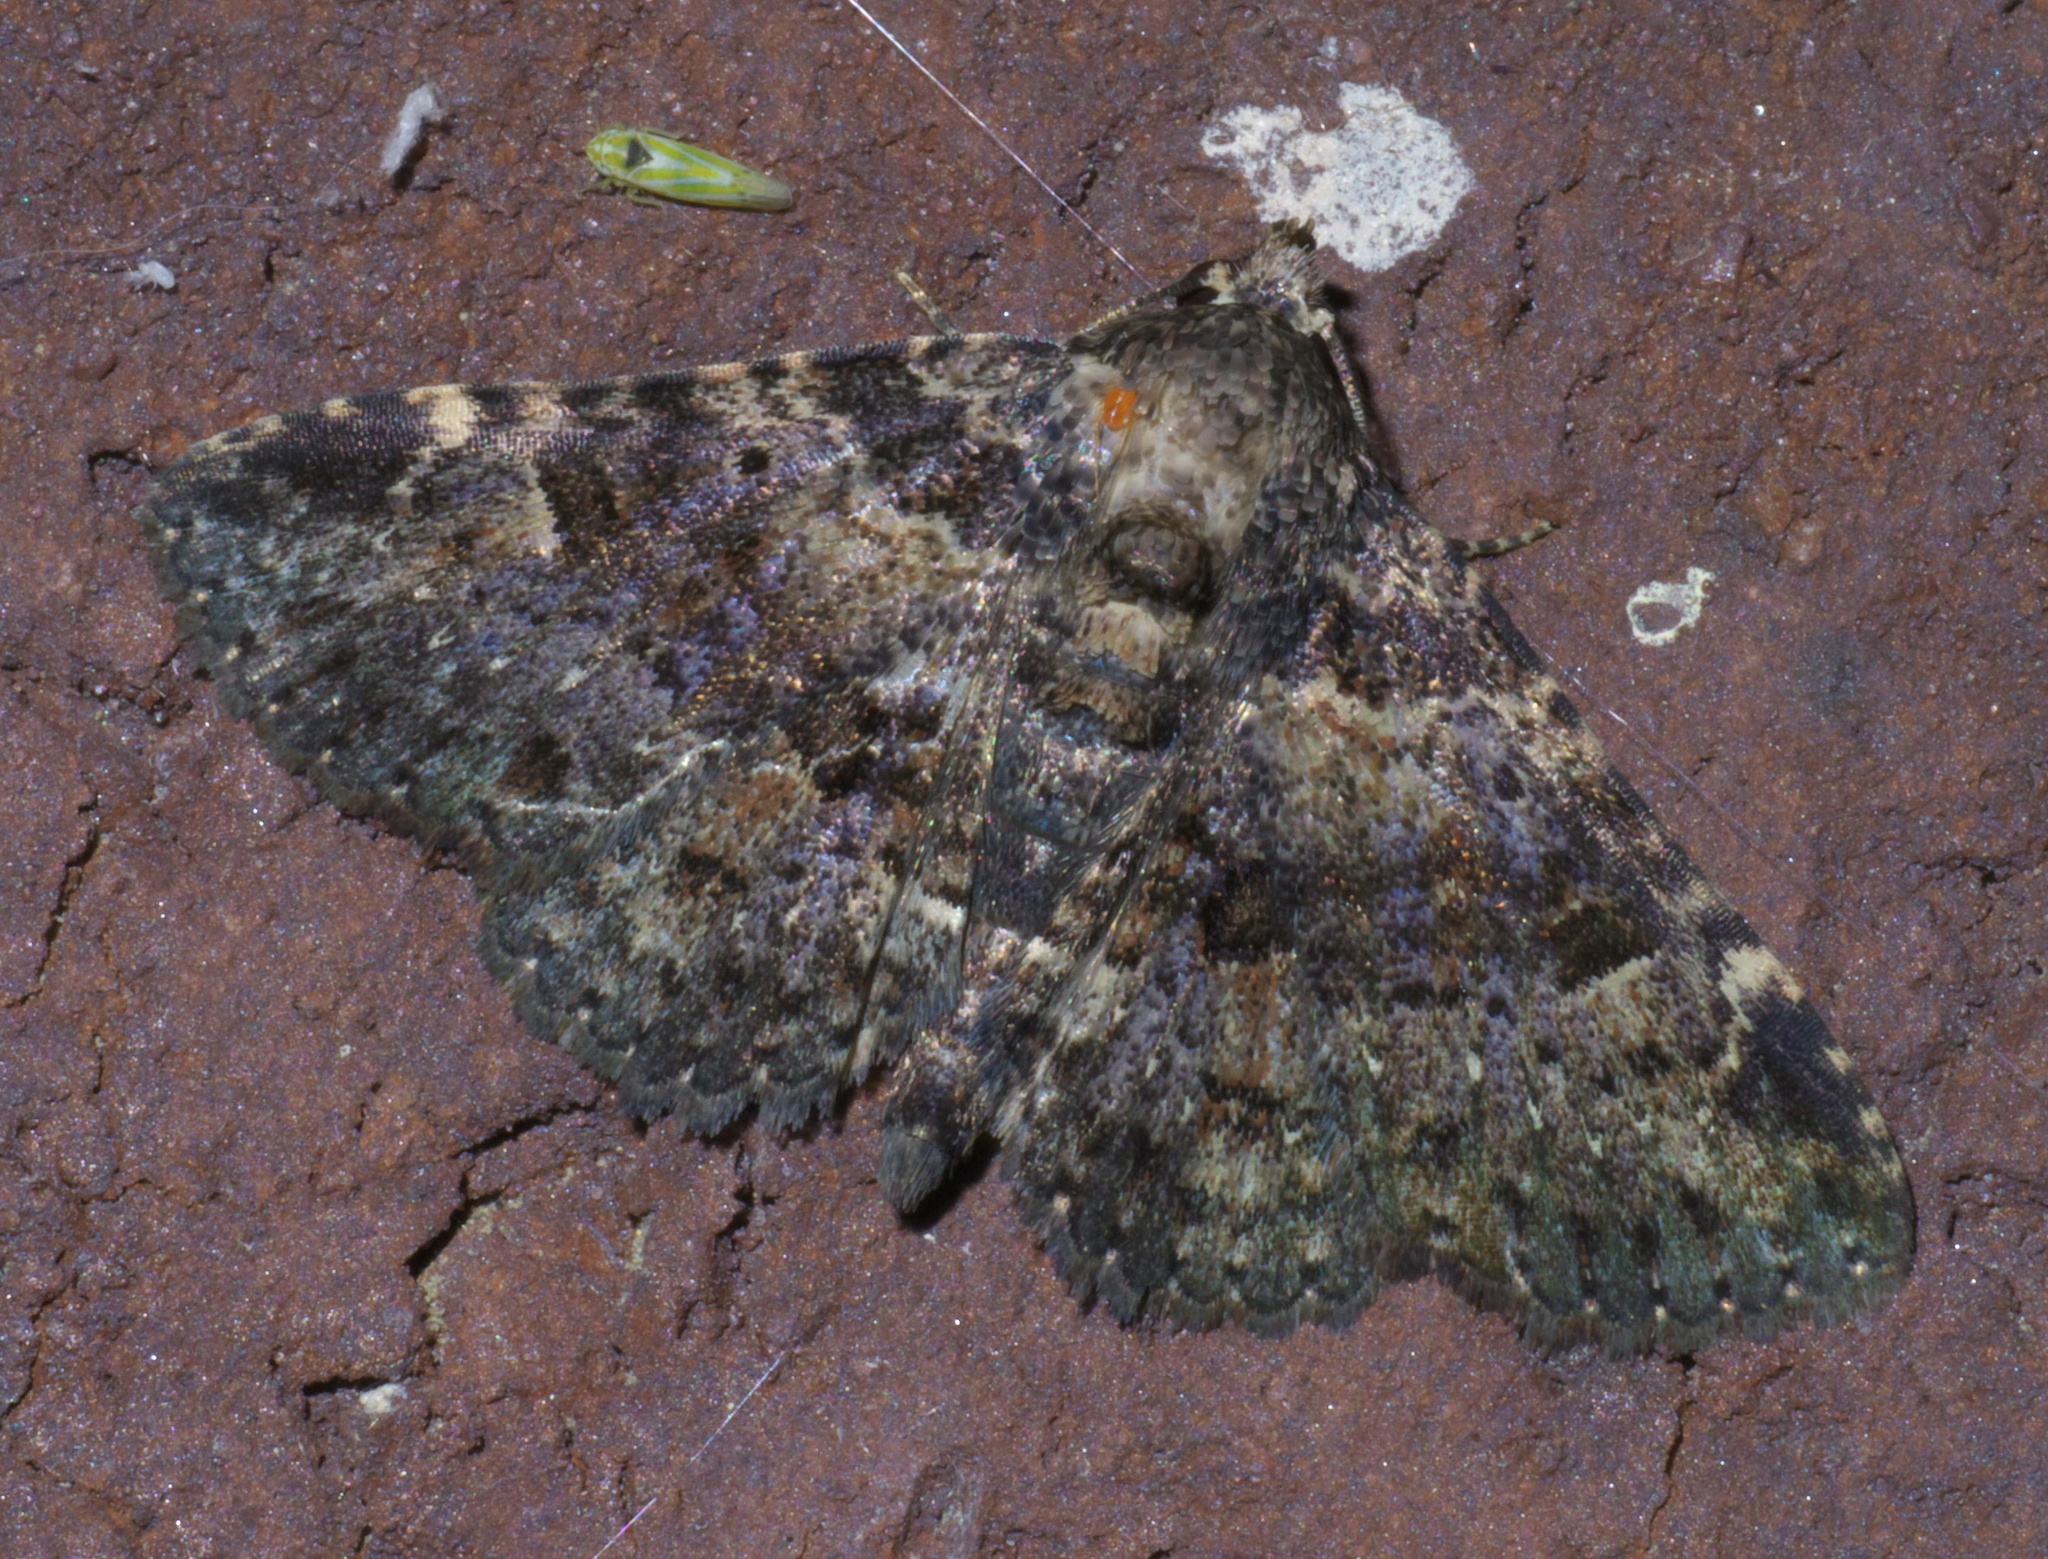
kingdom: Animalia
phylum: Arthropoda
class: Insecta
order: Lepidoptera
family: Erebidae
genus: Metalectra
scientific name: Metalectra discalis
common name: Common fungus moth
